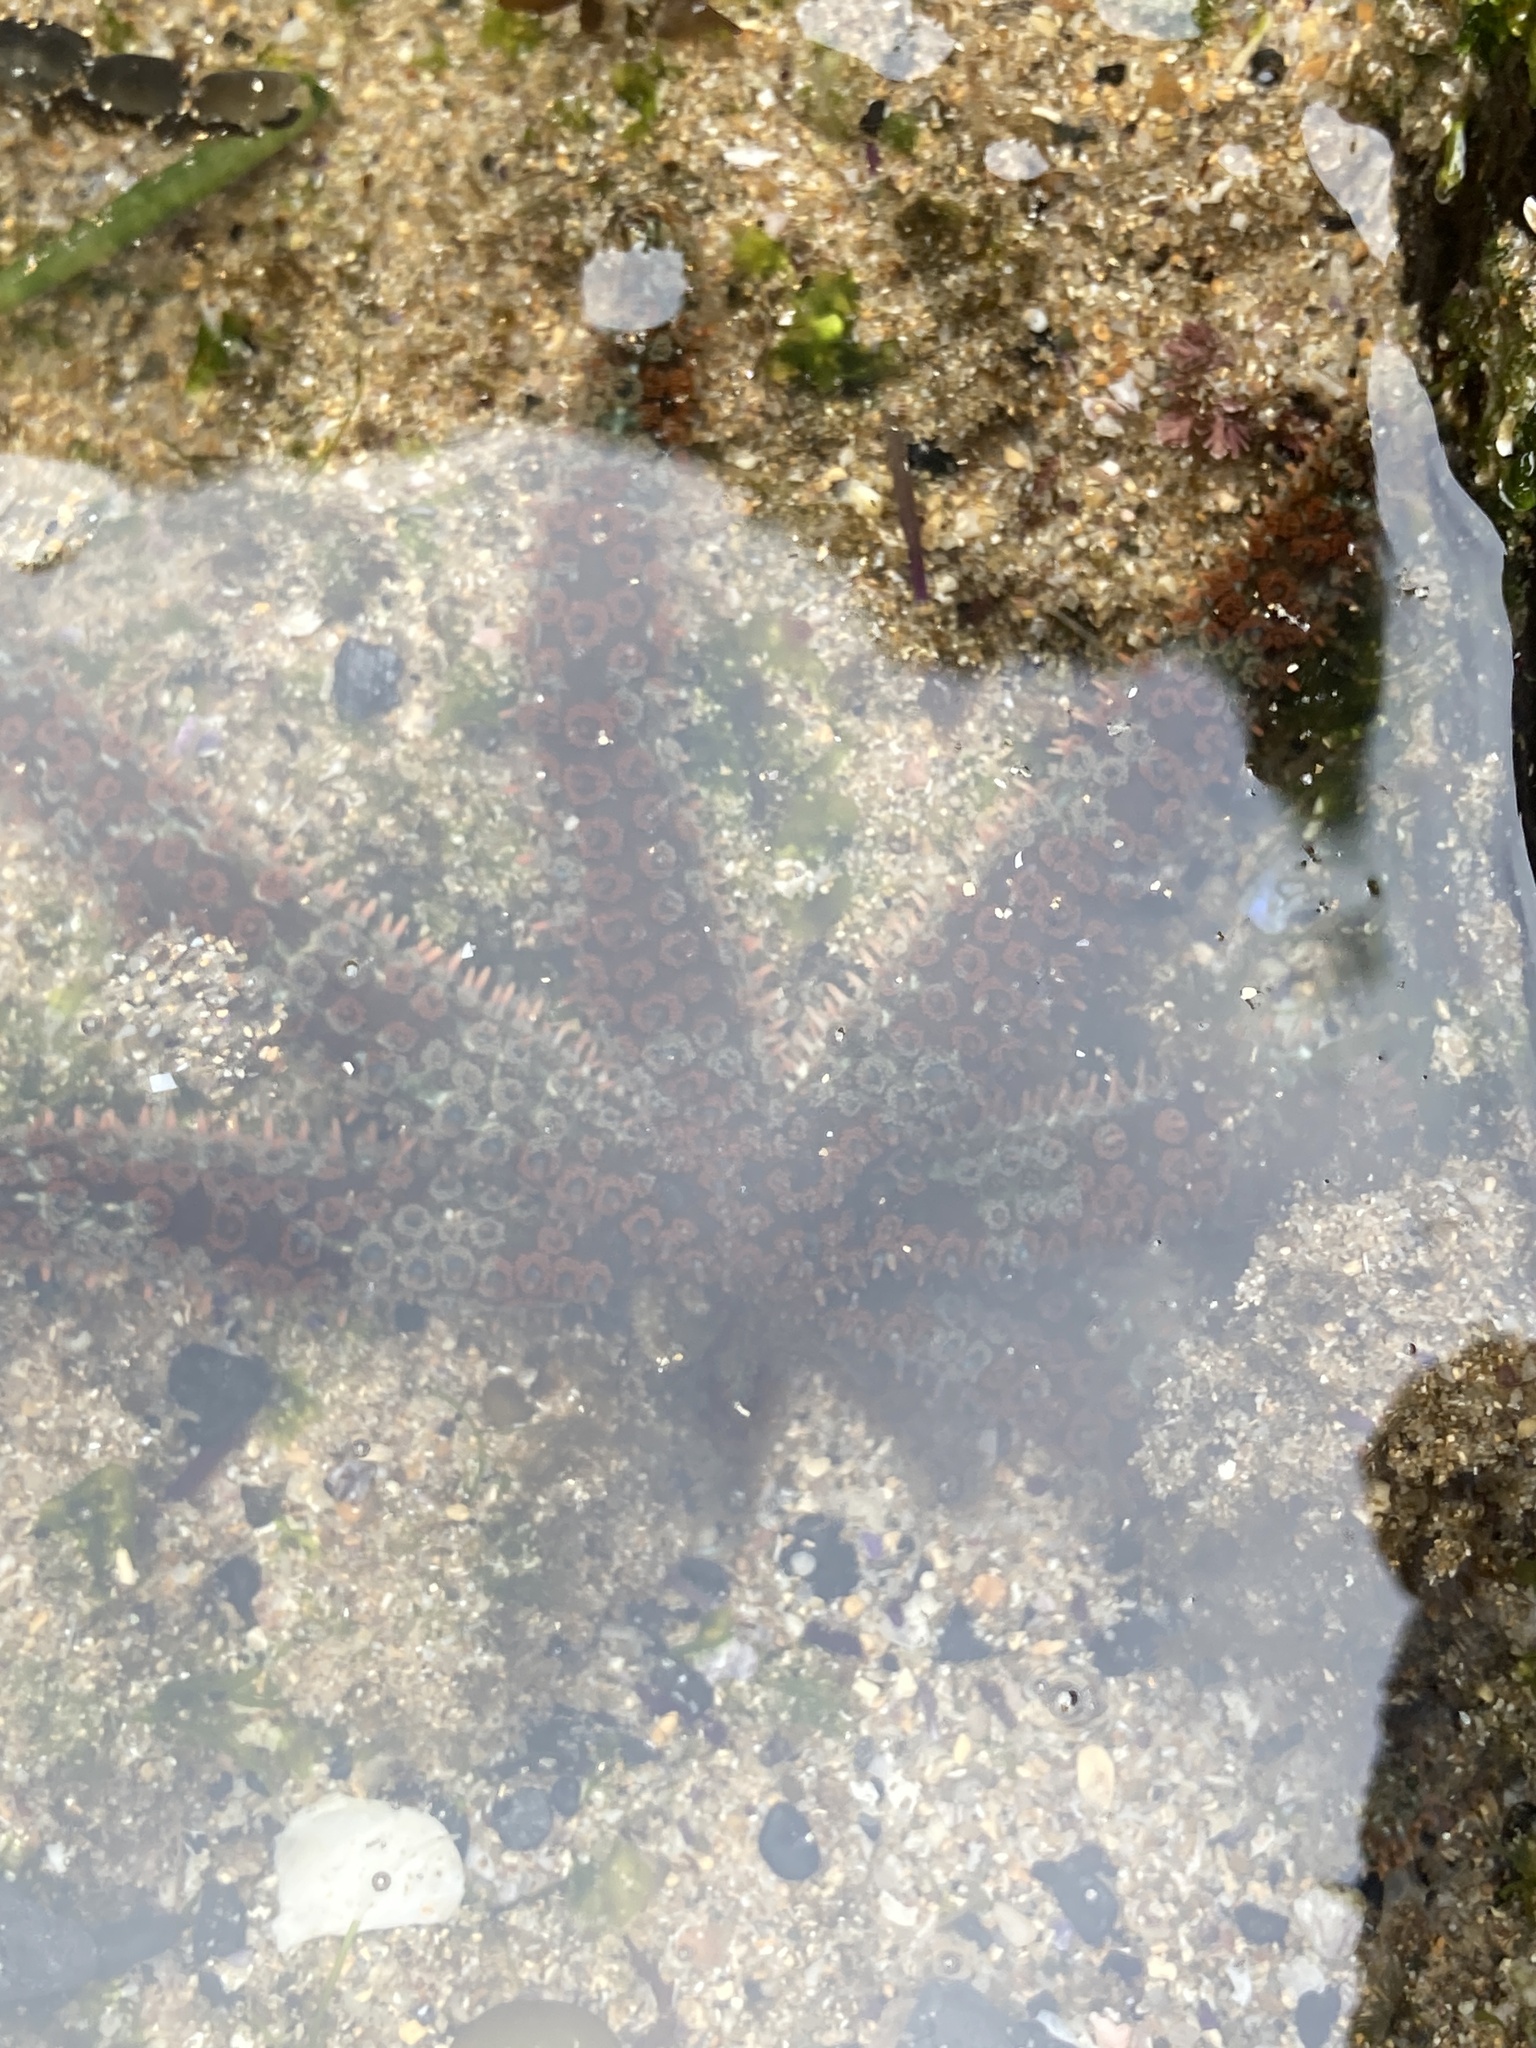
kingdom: Animalia
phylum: Echinodermata
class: Asteroidea
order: Forcipulatida
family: Asteriidae
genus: Coscinasterias
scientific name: Coscinasterias muricata
